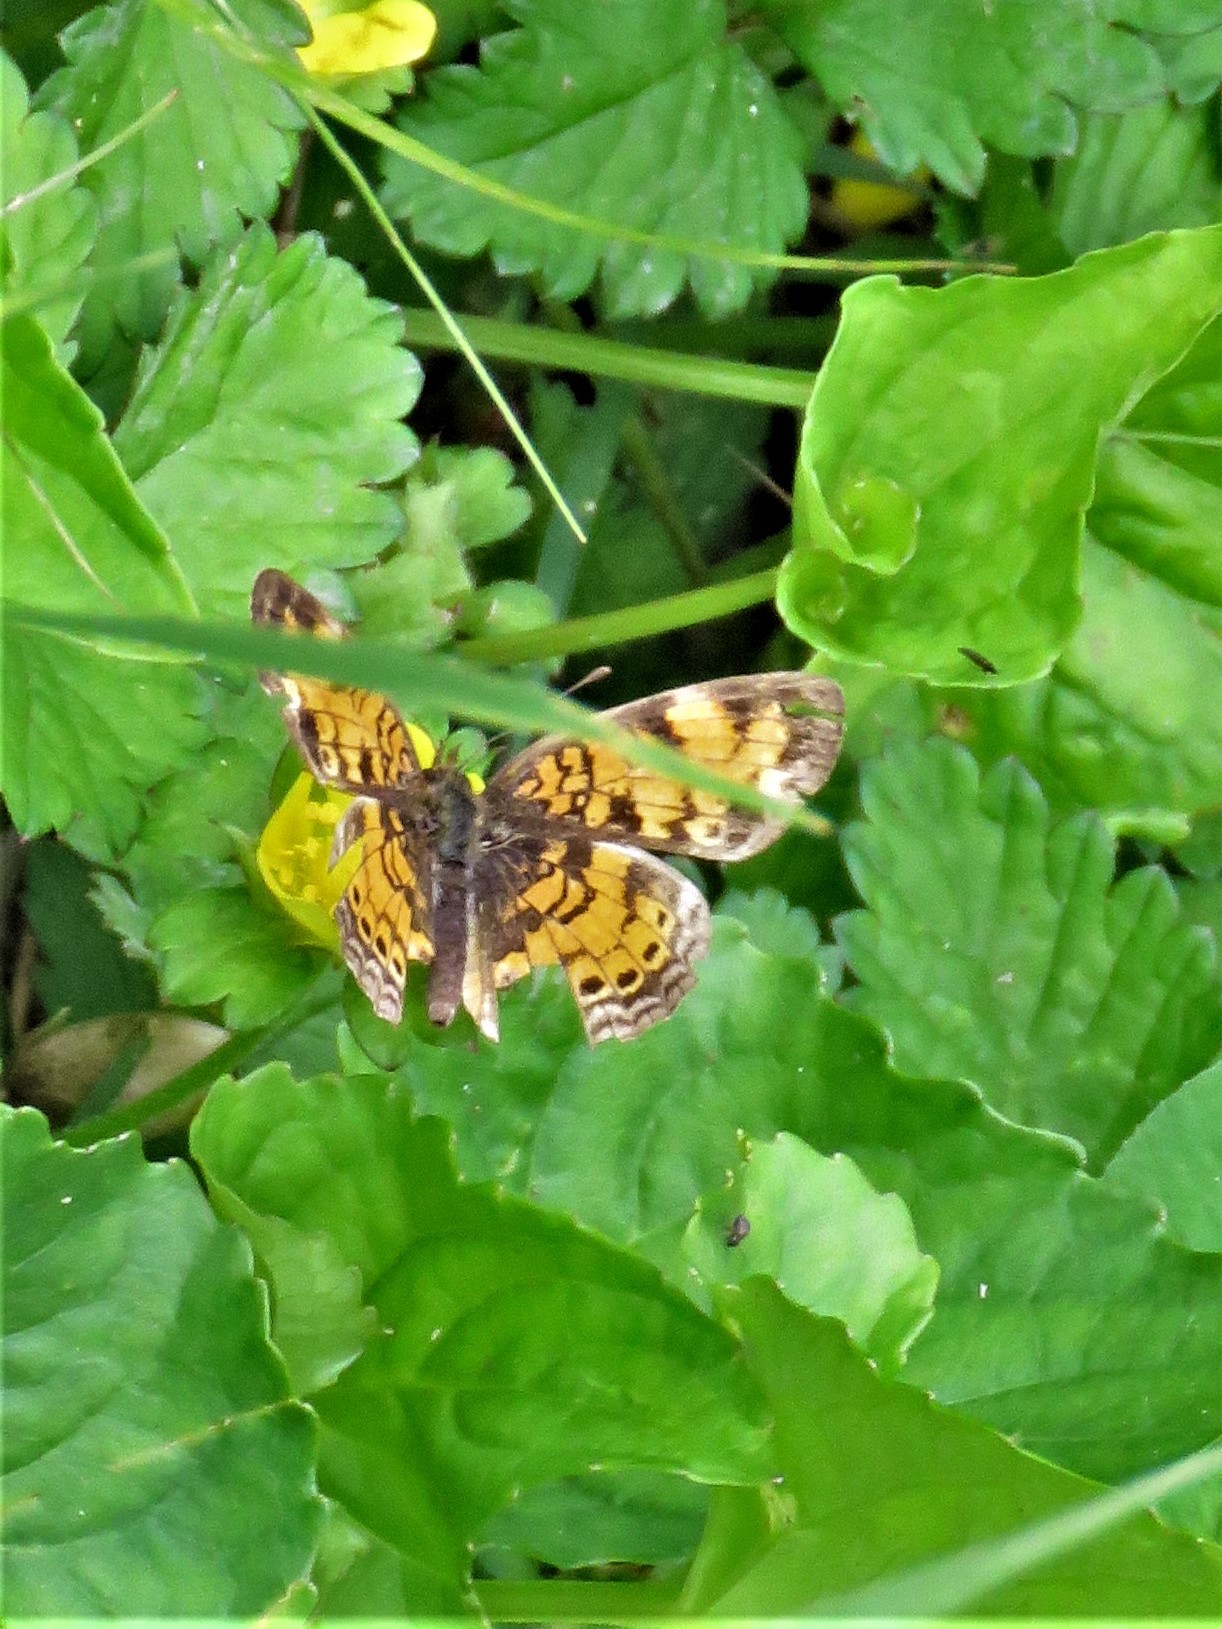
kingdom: Animalia
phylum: Arthropoda
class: Insecta
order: Lepidoptera
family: Nymphalidae
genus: Phyciodes
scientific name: Phyciodes tharos
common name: Pearl crescent
